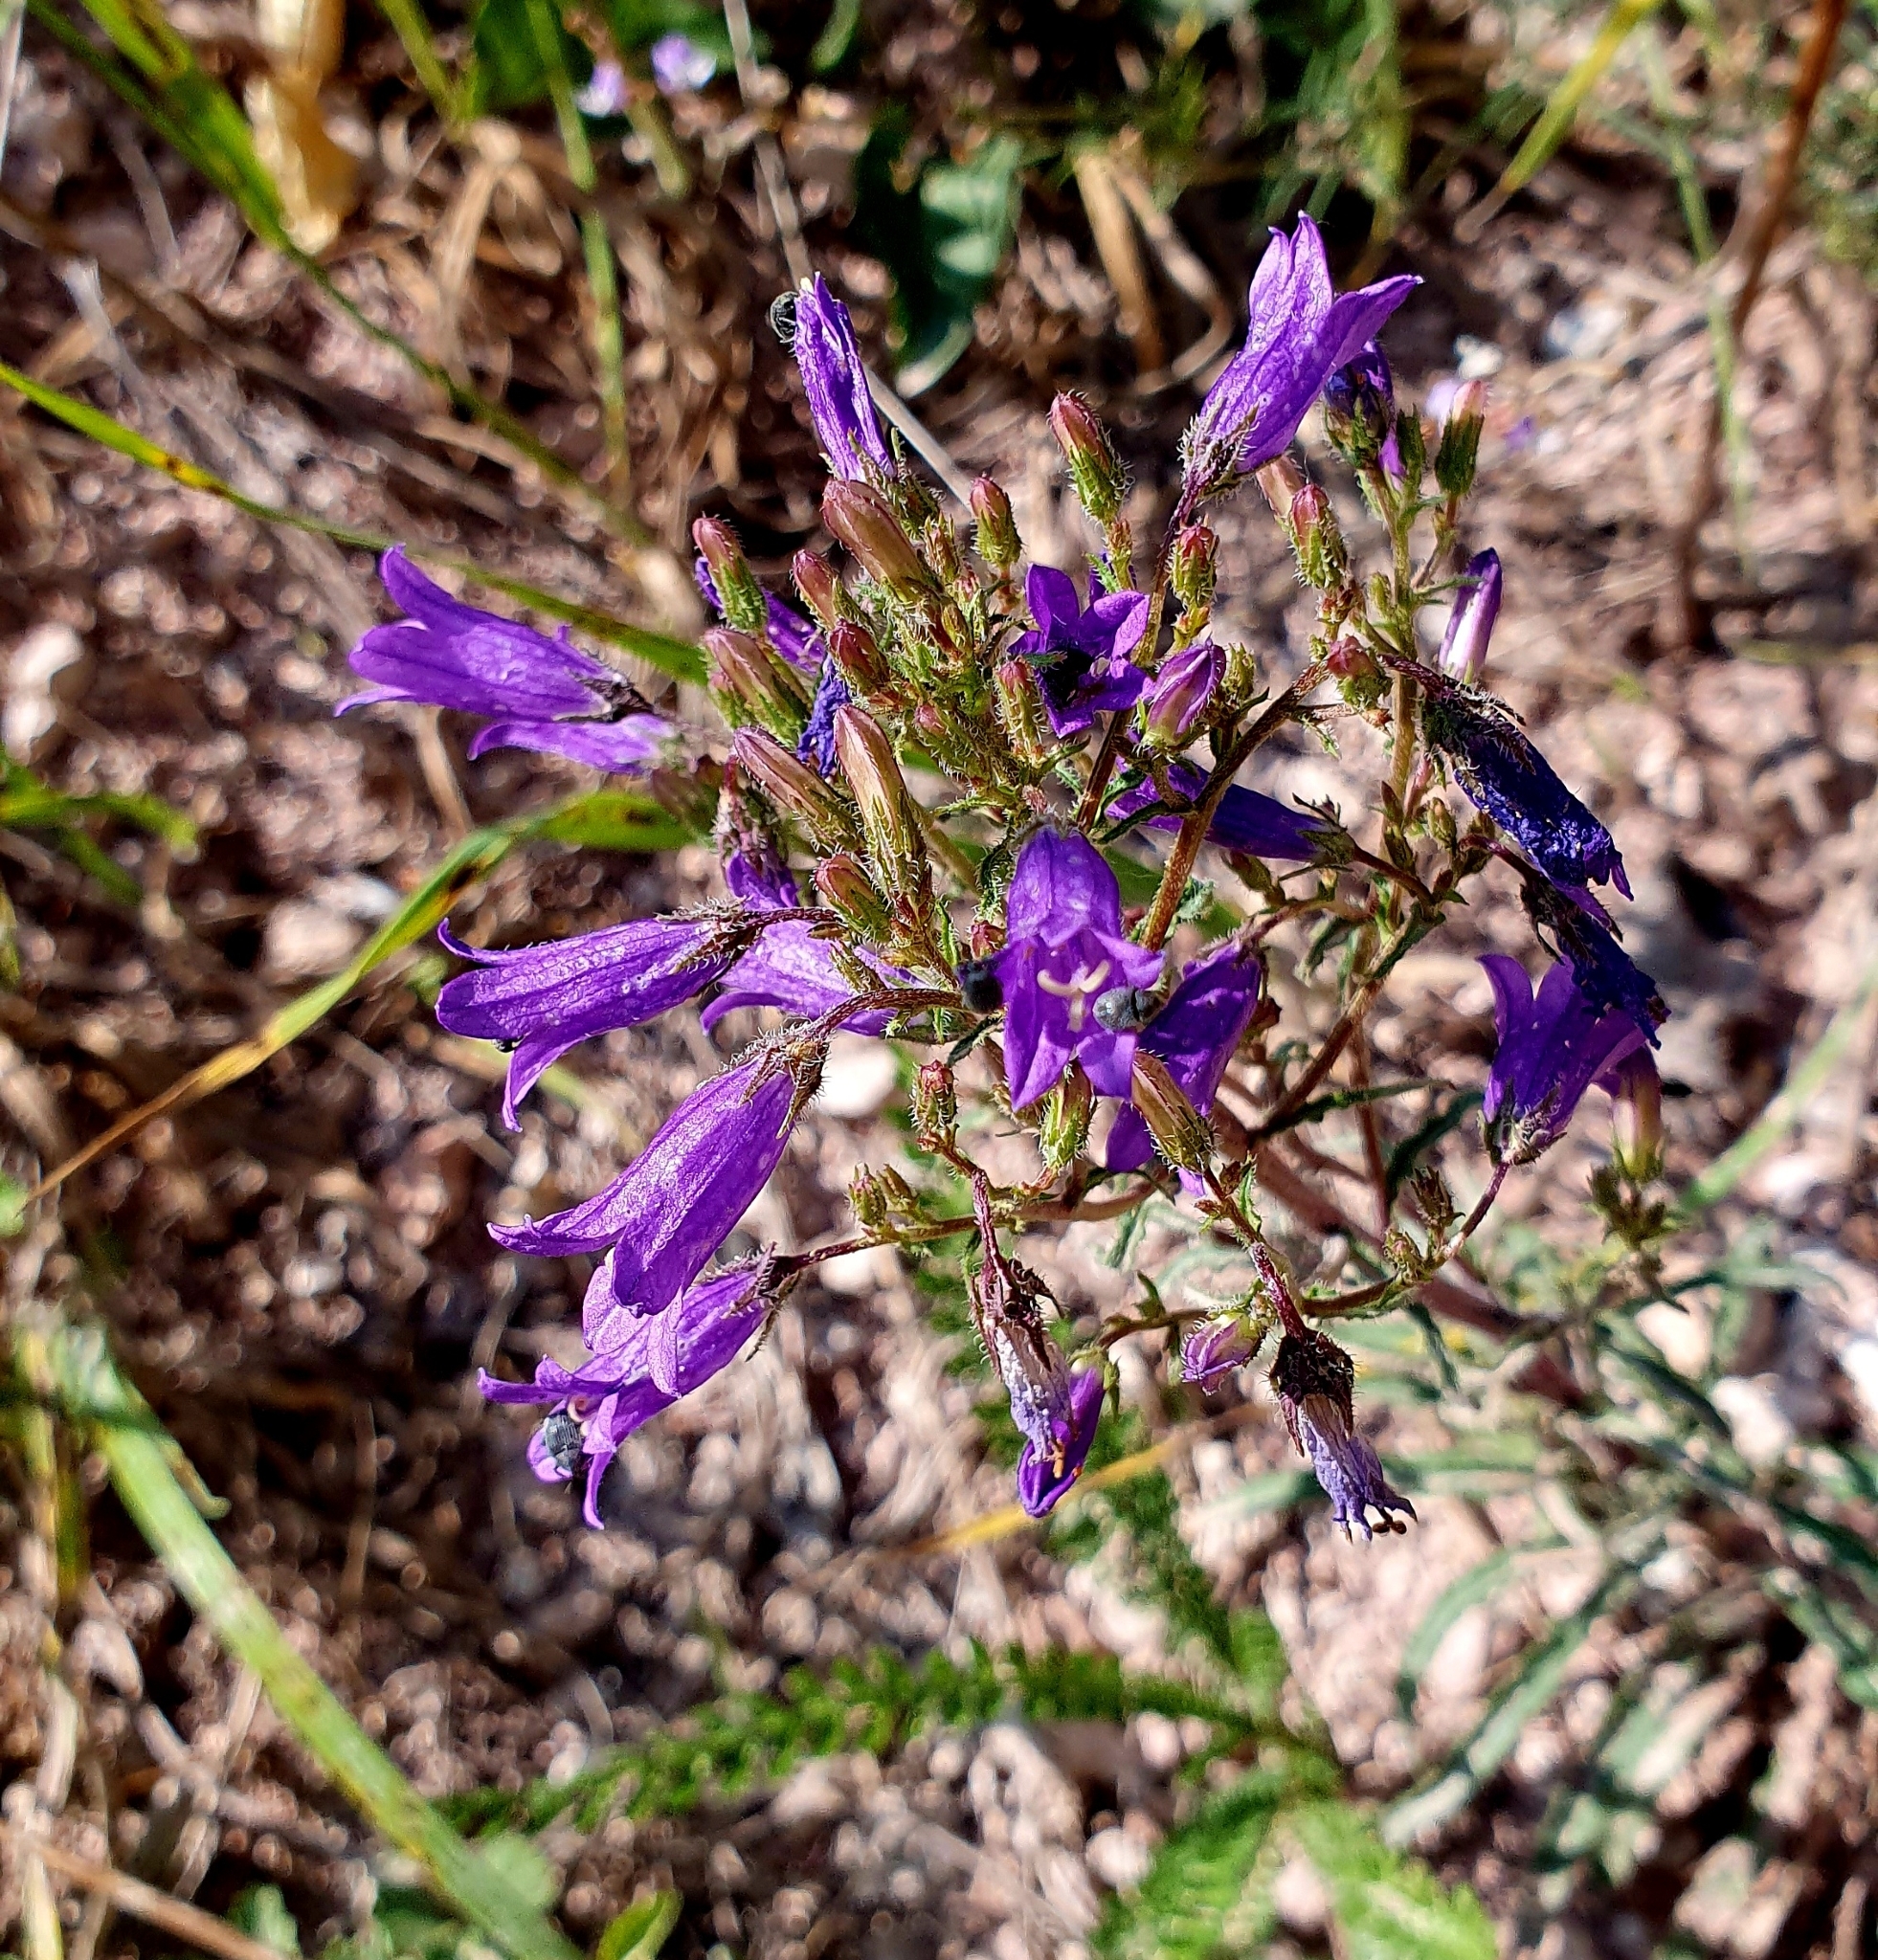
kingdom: Plantae
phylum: Tracheophyta
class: Magnoliopsida
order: Asterales
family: Campanulaceae
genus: Campanula
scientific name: Campanula sibirica
